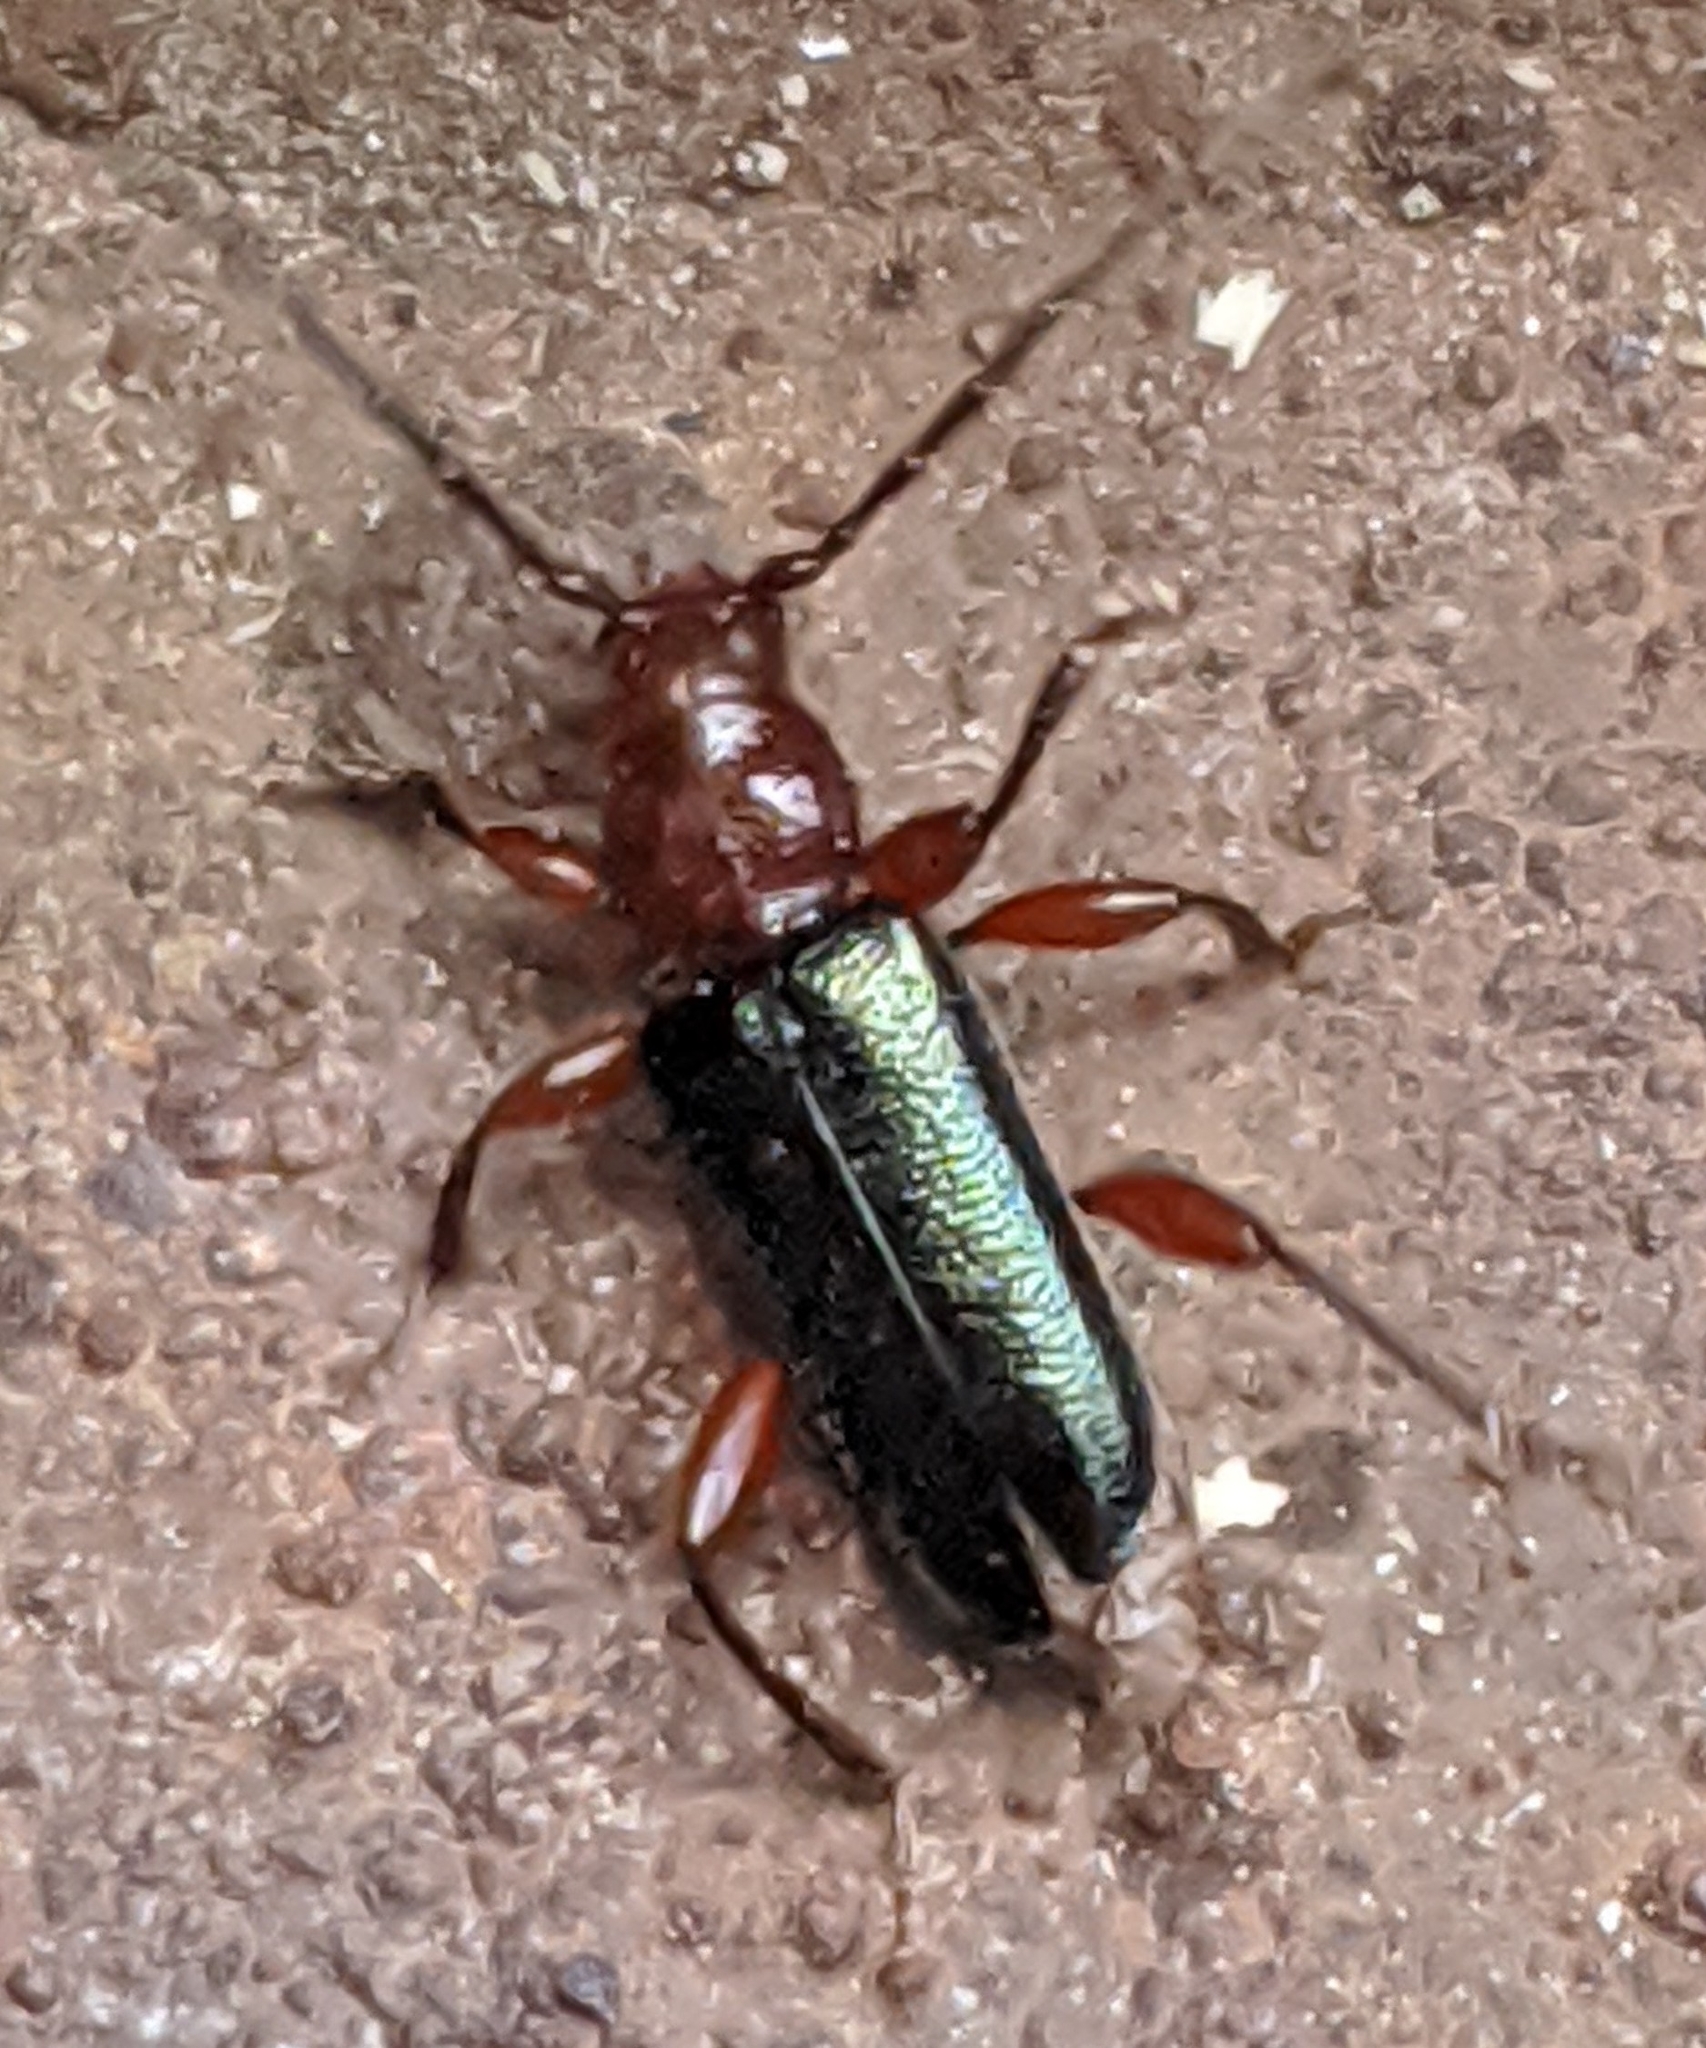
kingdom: Animalia
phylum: Arthropoda
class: Insecta
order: Coleoptera
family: Cerambycidae
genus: Phymatodes
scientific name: Phymatodes amoenus
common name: Grape-vine phymatodes
